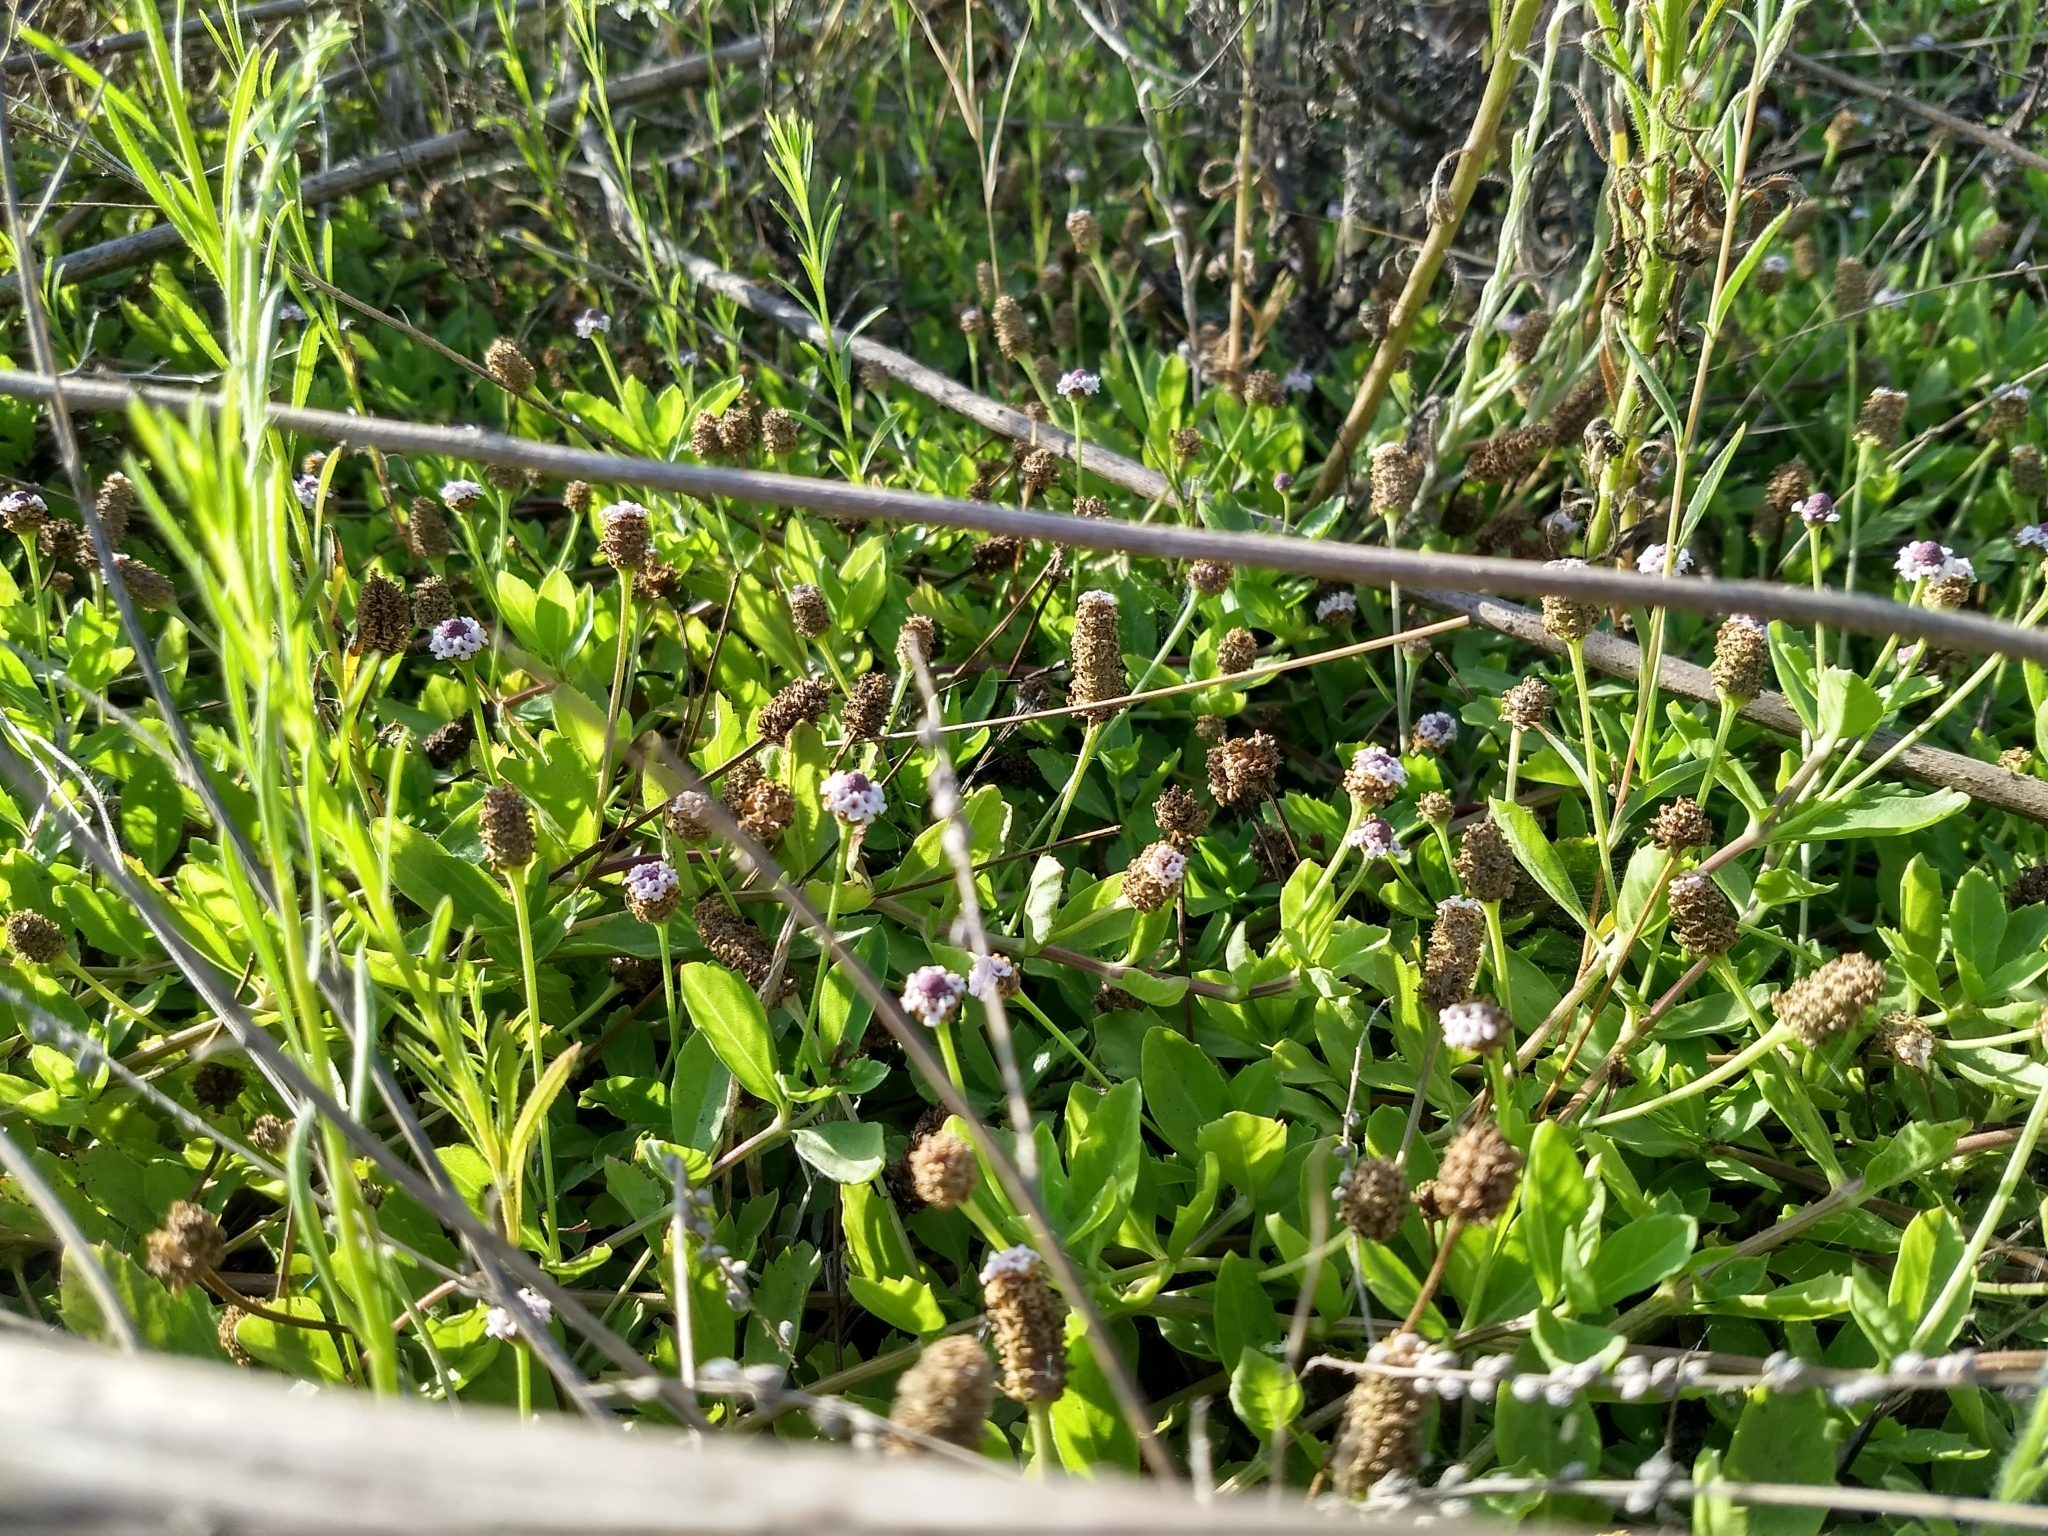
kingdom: Plantae
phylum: Tracheophyta
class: Magnoliopsida
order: Lamiales
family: Verbenaceae
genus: Phyla
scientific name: Phyla nodiflora
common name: Frogfruit
